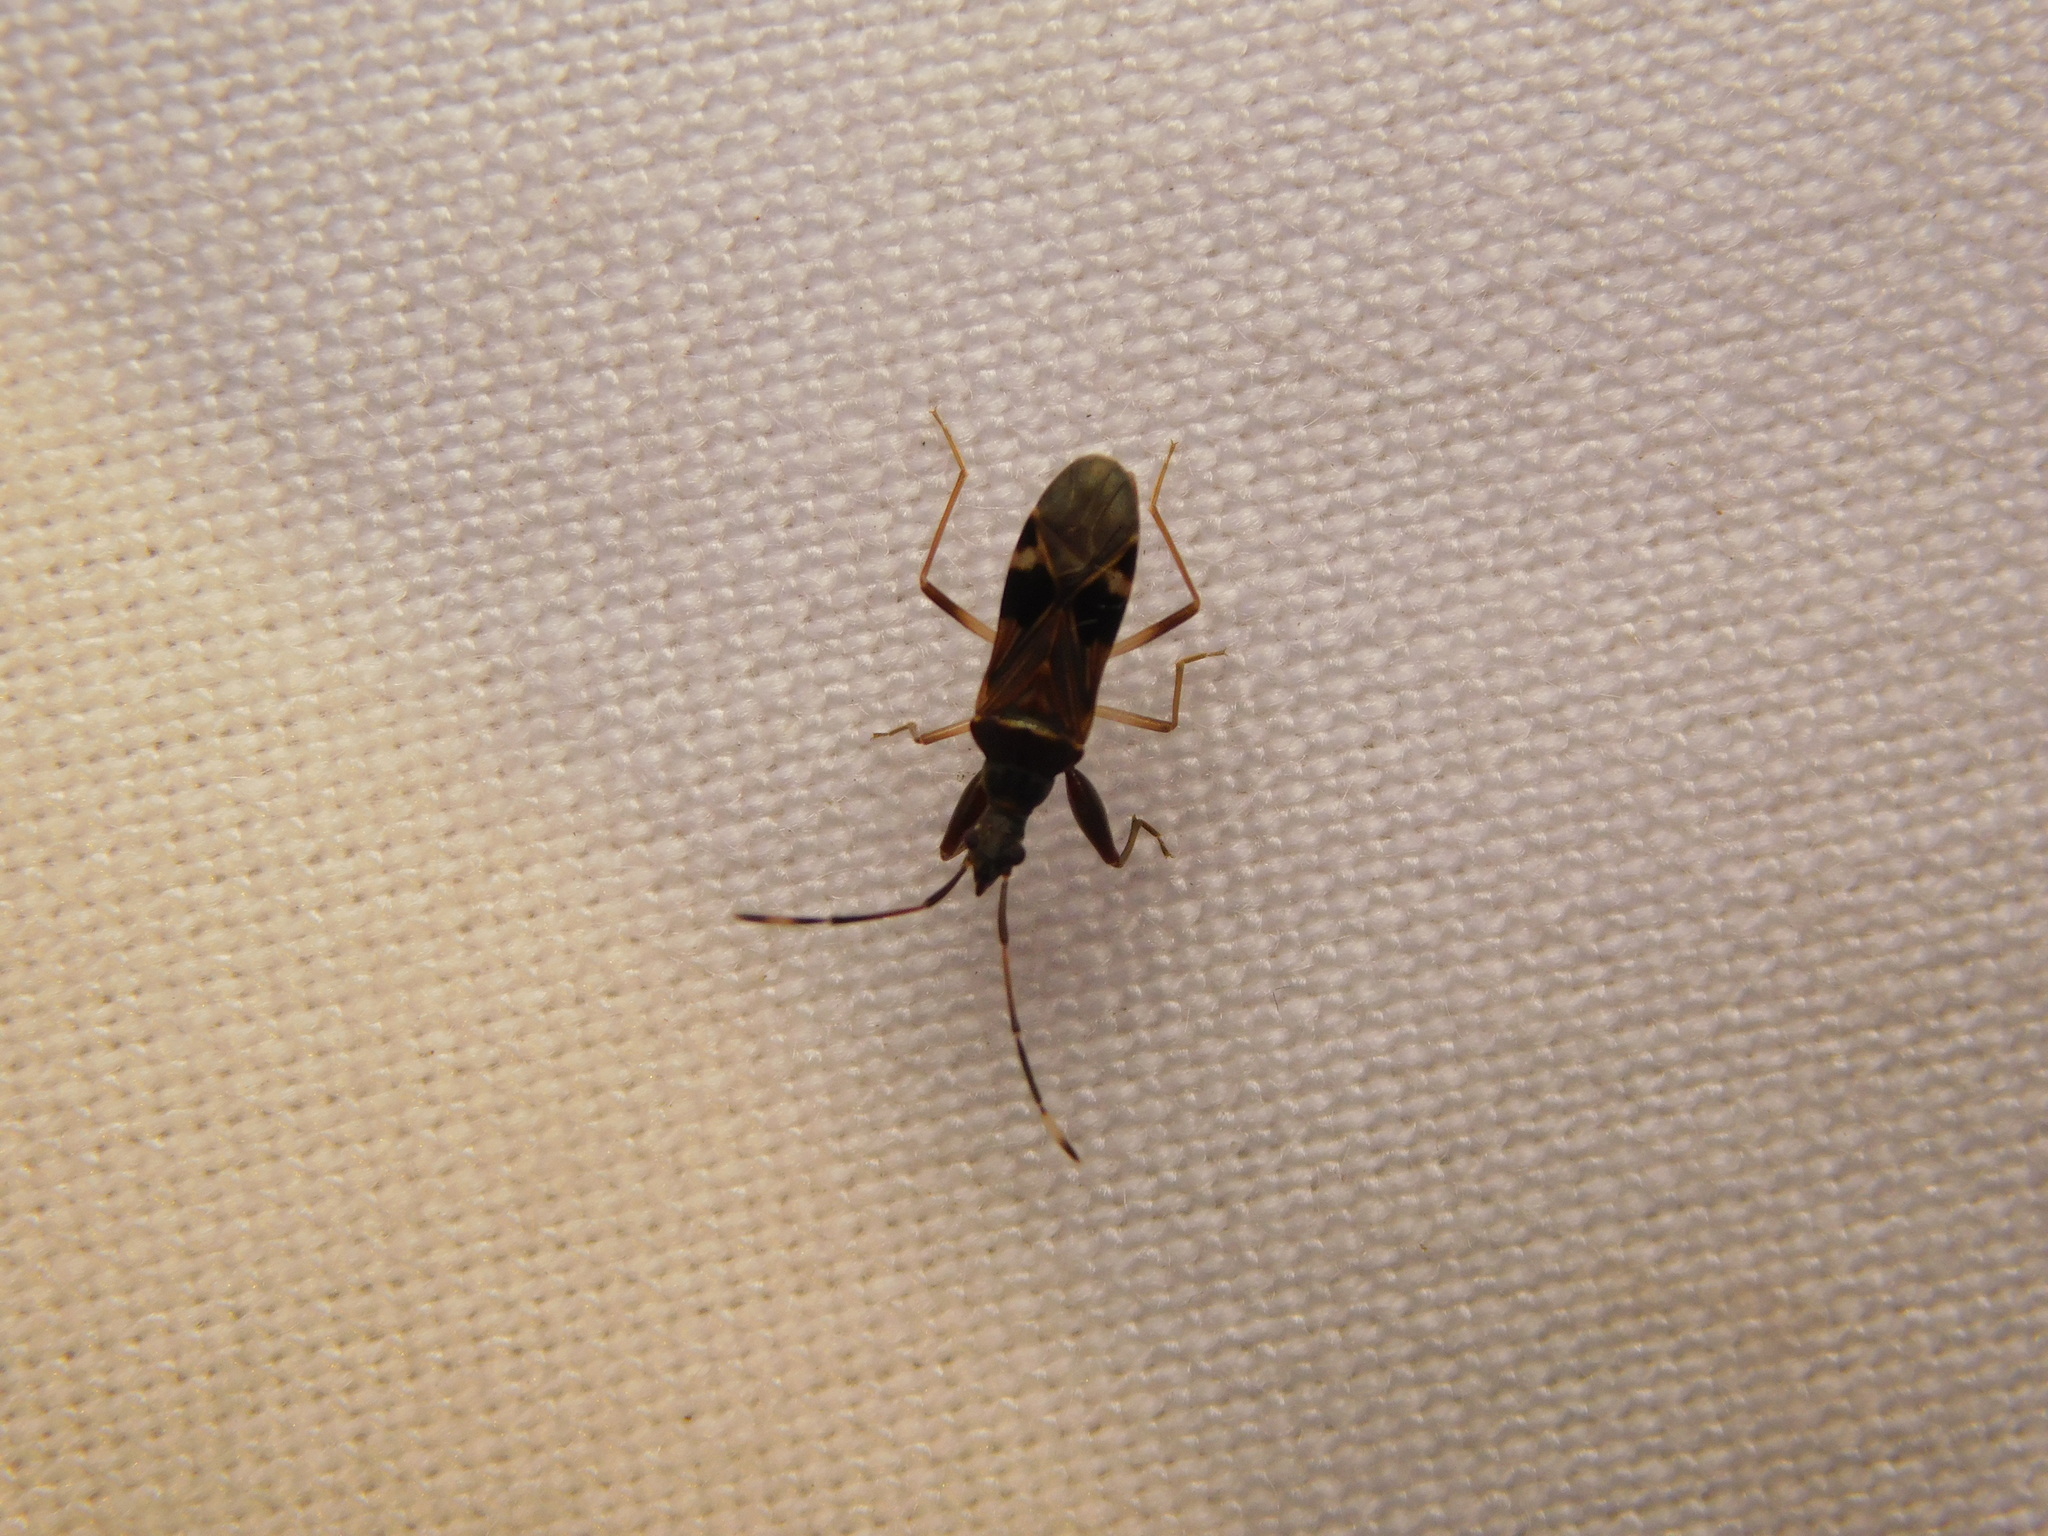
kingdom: Animalia
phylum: Arthropoda
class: Insecta
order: Hemiptera
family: Rhyparochromidae
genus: Altomarus
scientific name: Altomarus greeni
